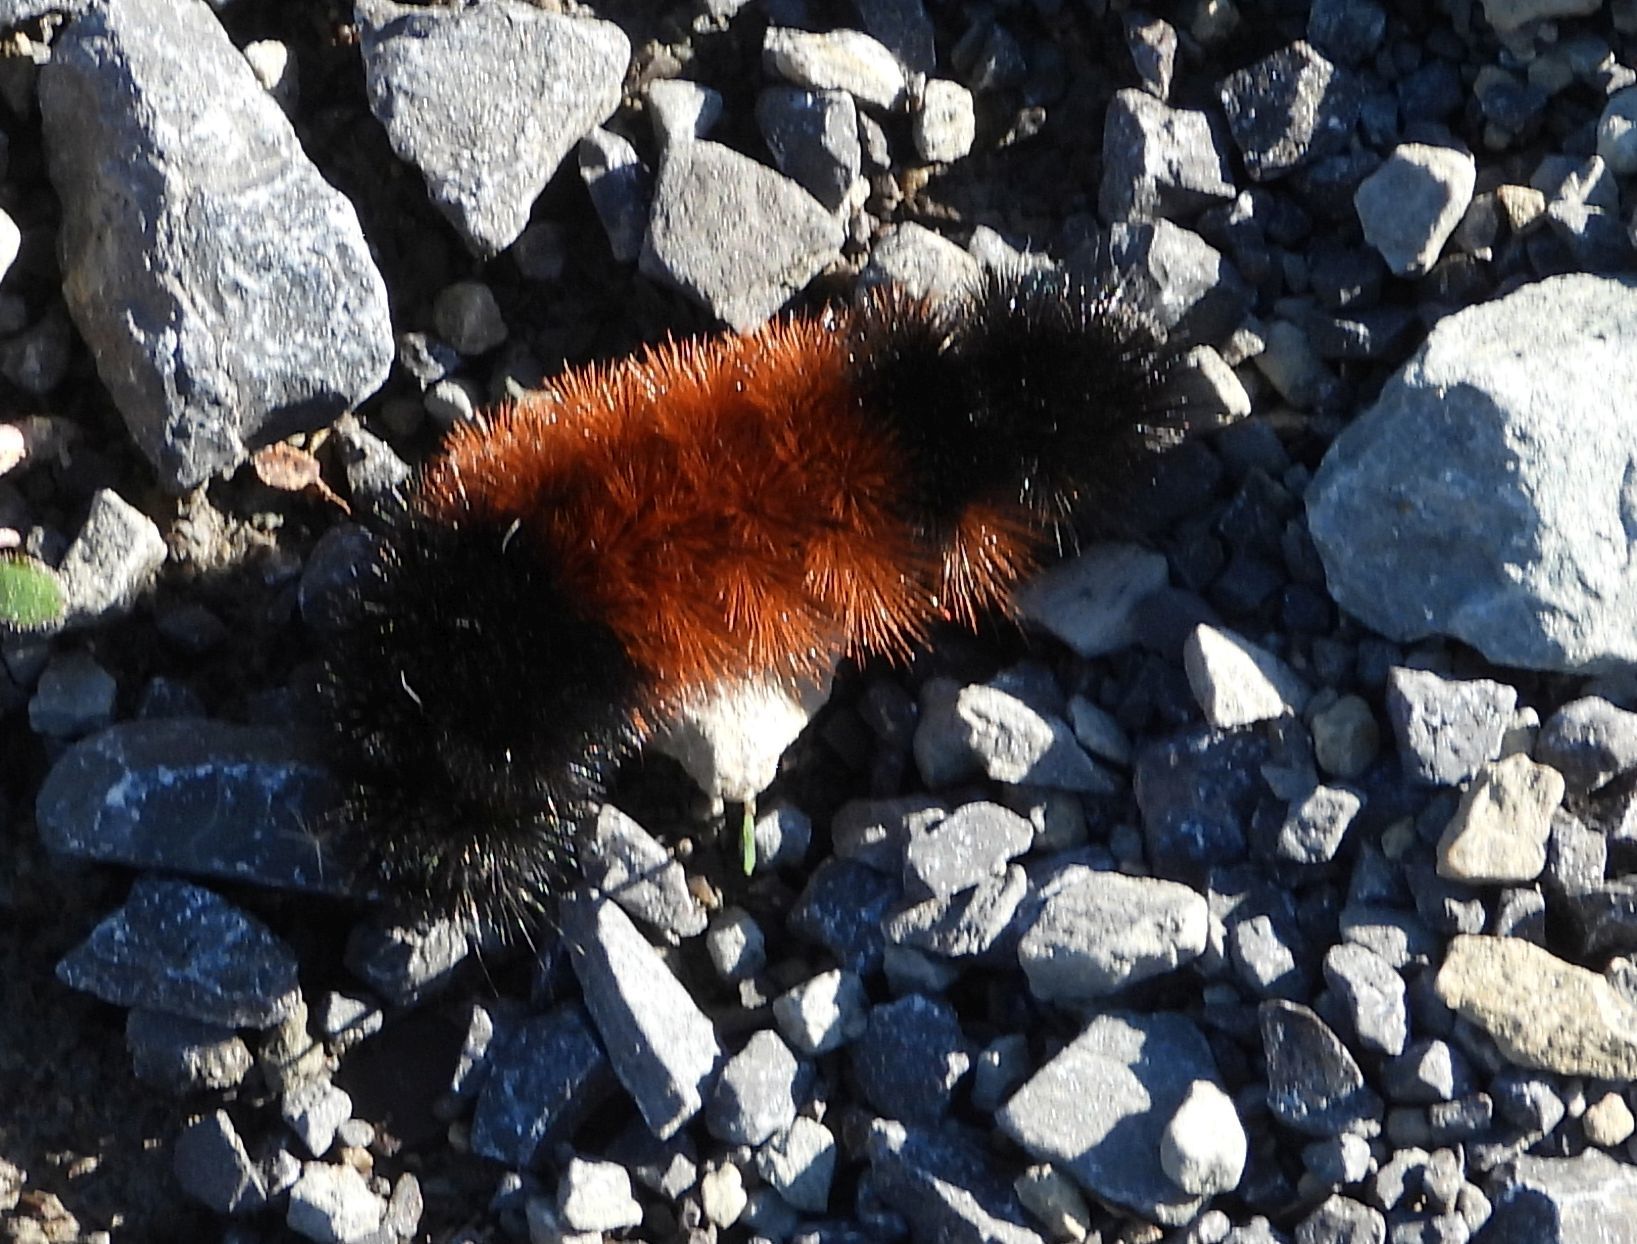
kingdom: Animalia
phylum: Arthropoda
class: Insecta
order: Lepidoptera
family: Erebidae
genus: Pyrrharctia
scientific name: Pyrrharctia isabella
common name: Isabella tiger moth
